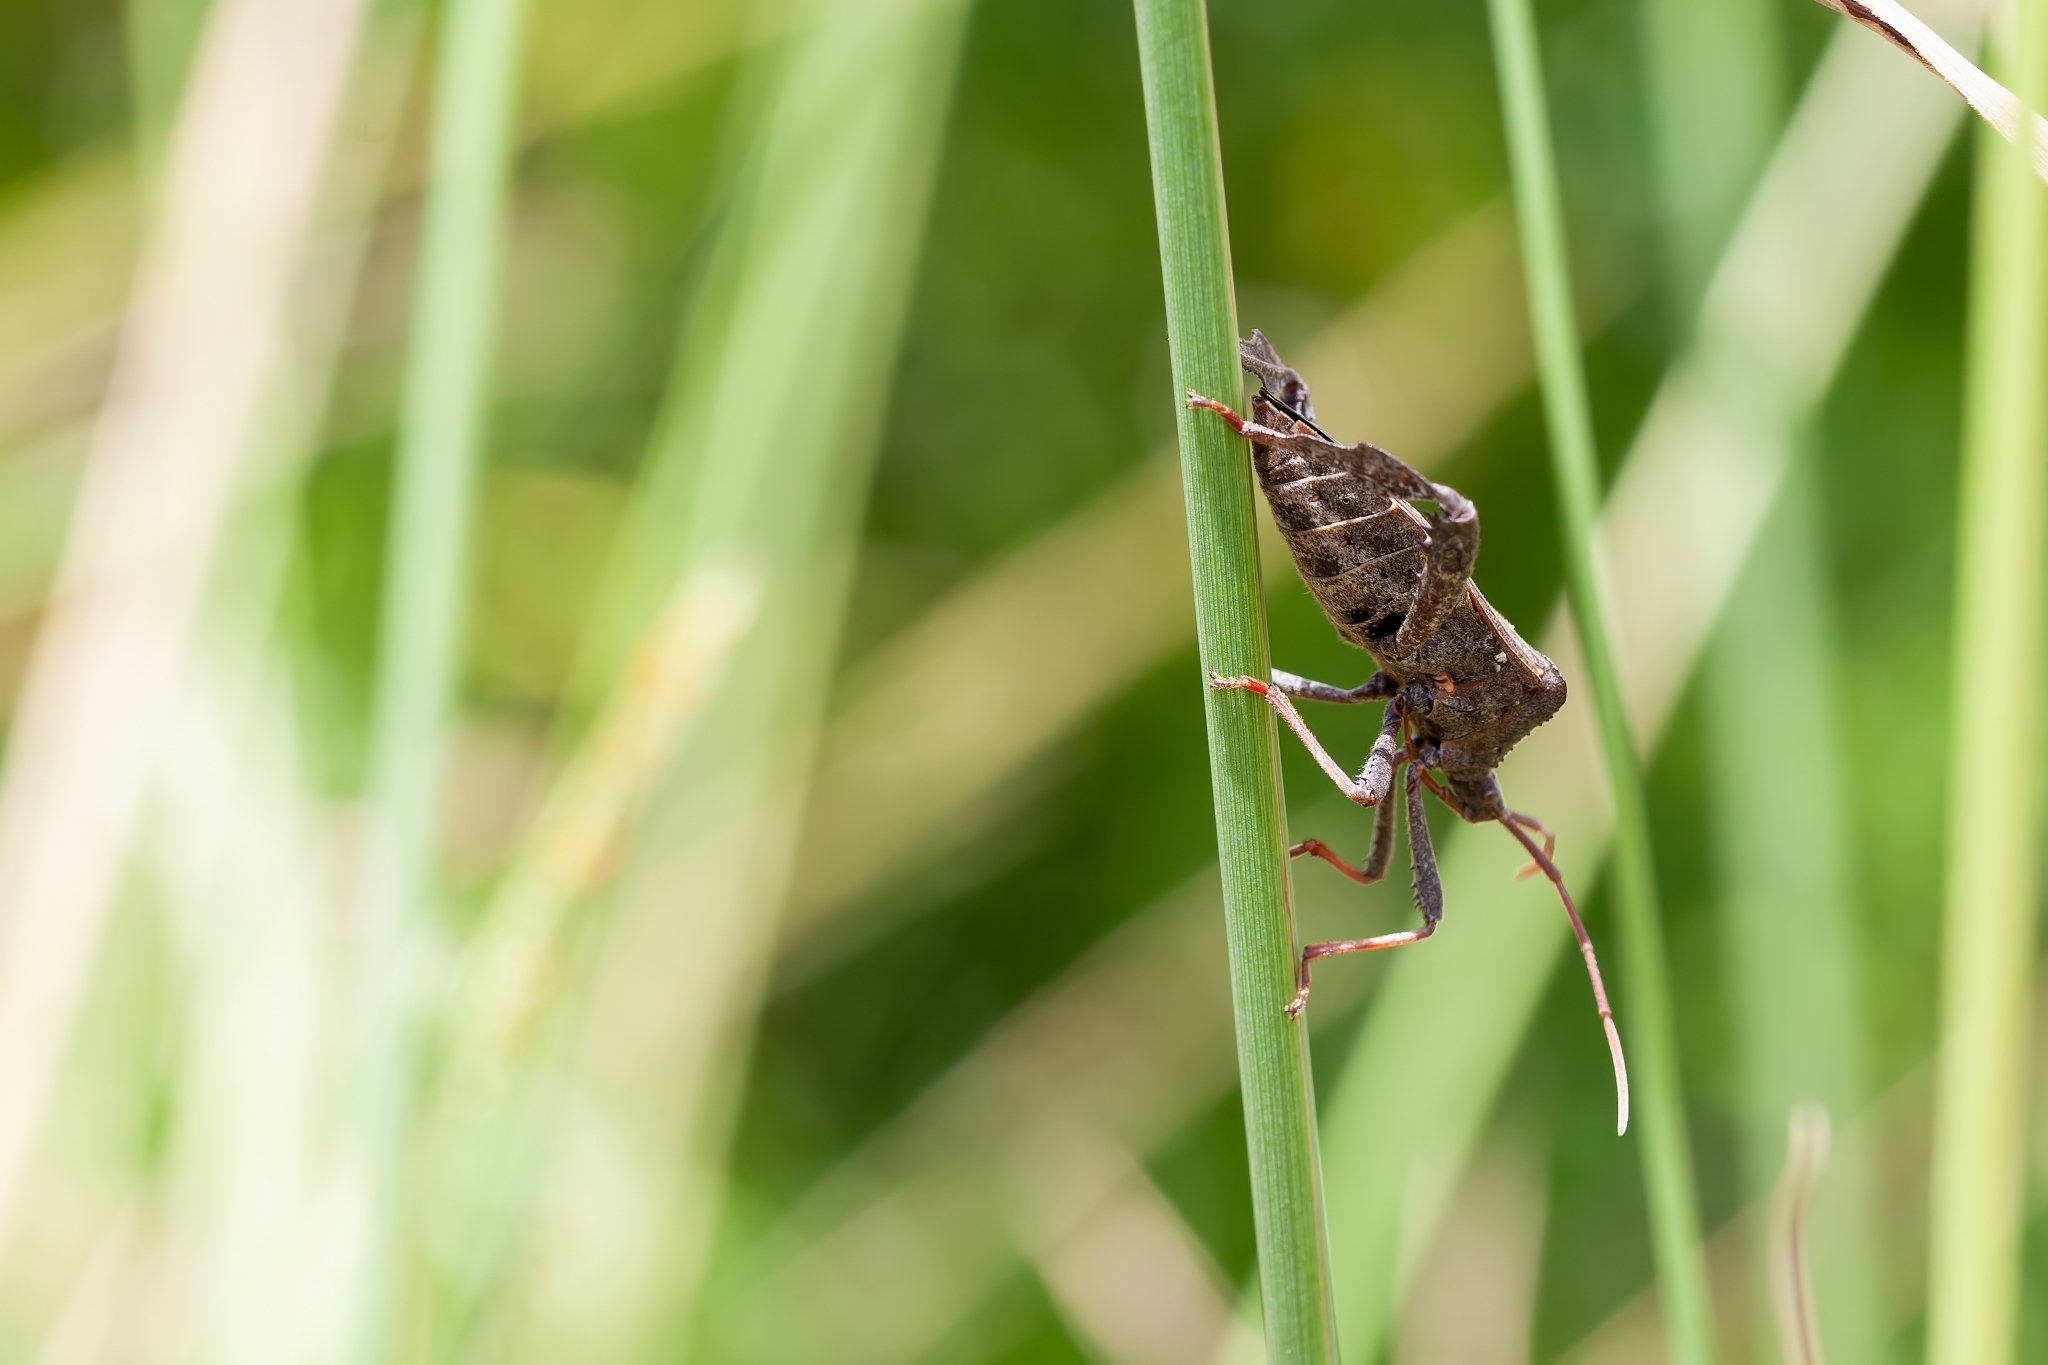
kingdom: Animalia
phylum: Arthropoda
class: Insecta
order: Hemiptera
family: Coreidae
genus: Acanthocephala
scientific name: Acanthocephala femorata
